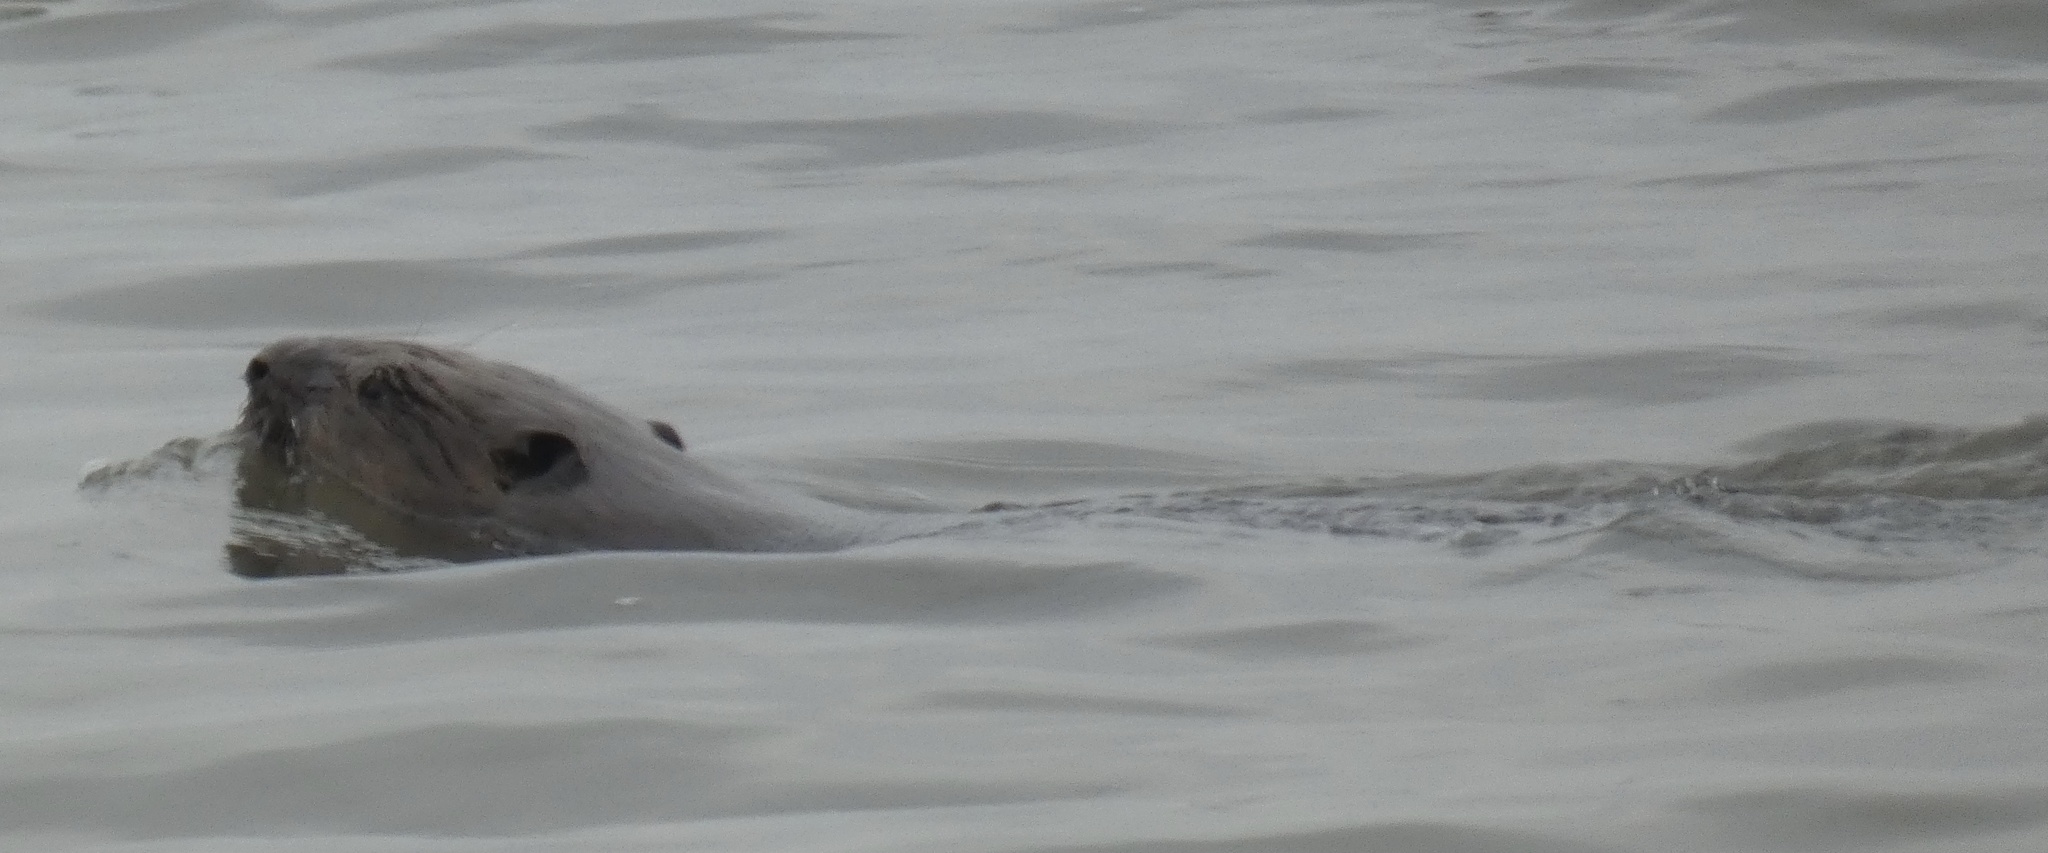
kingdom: Animalia
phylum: Chordata
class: Mammalia
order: Rodentia
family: Castoridae
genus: Castor
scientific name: Castor fiber
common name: Eurasian beaver
